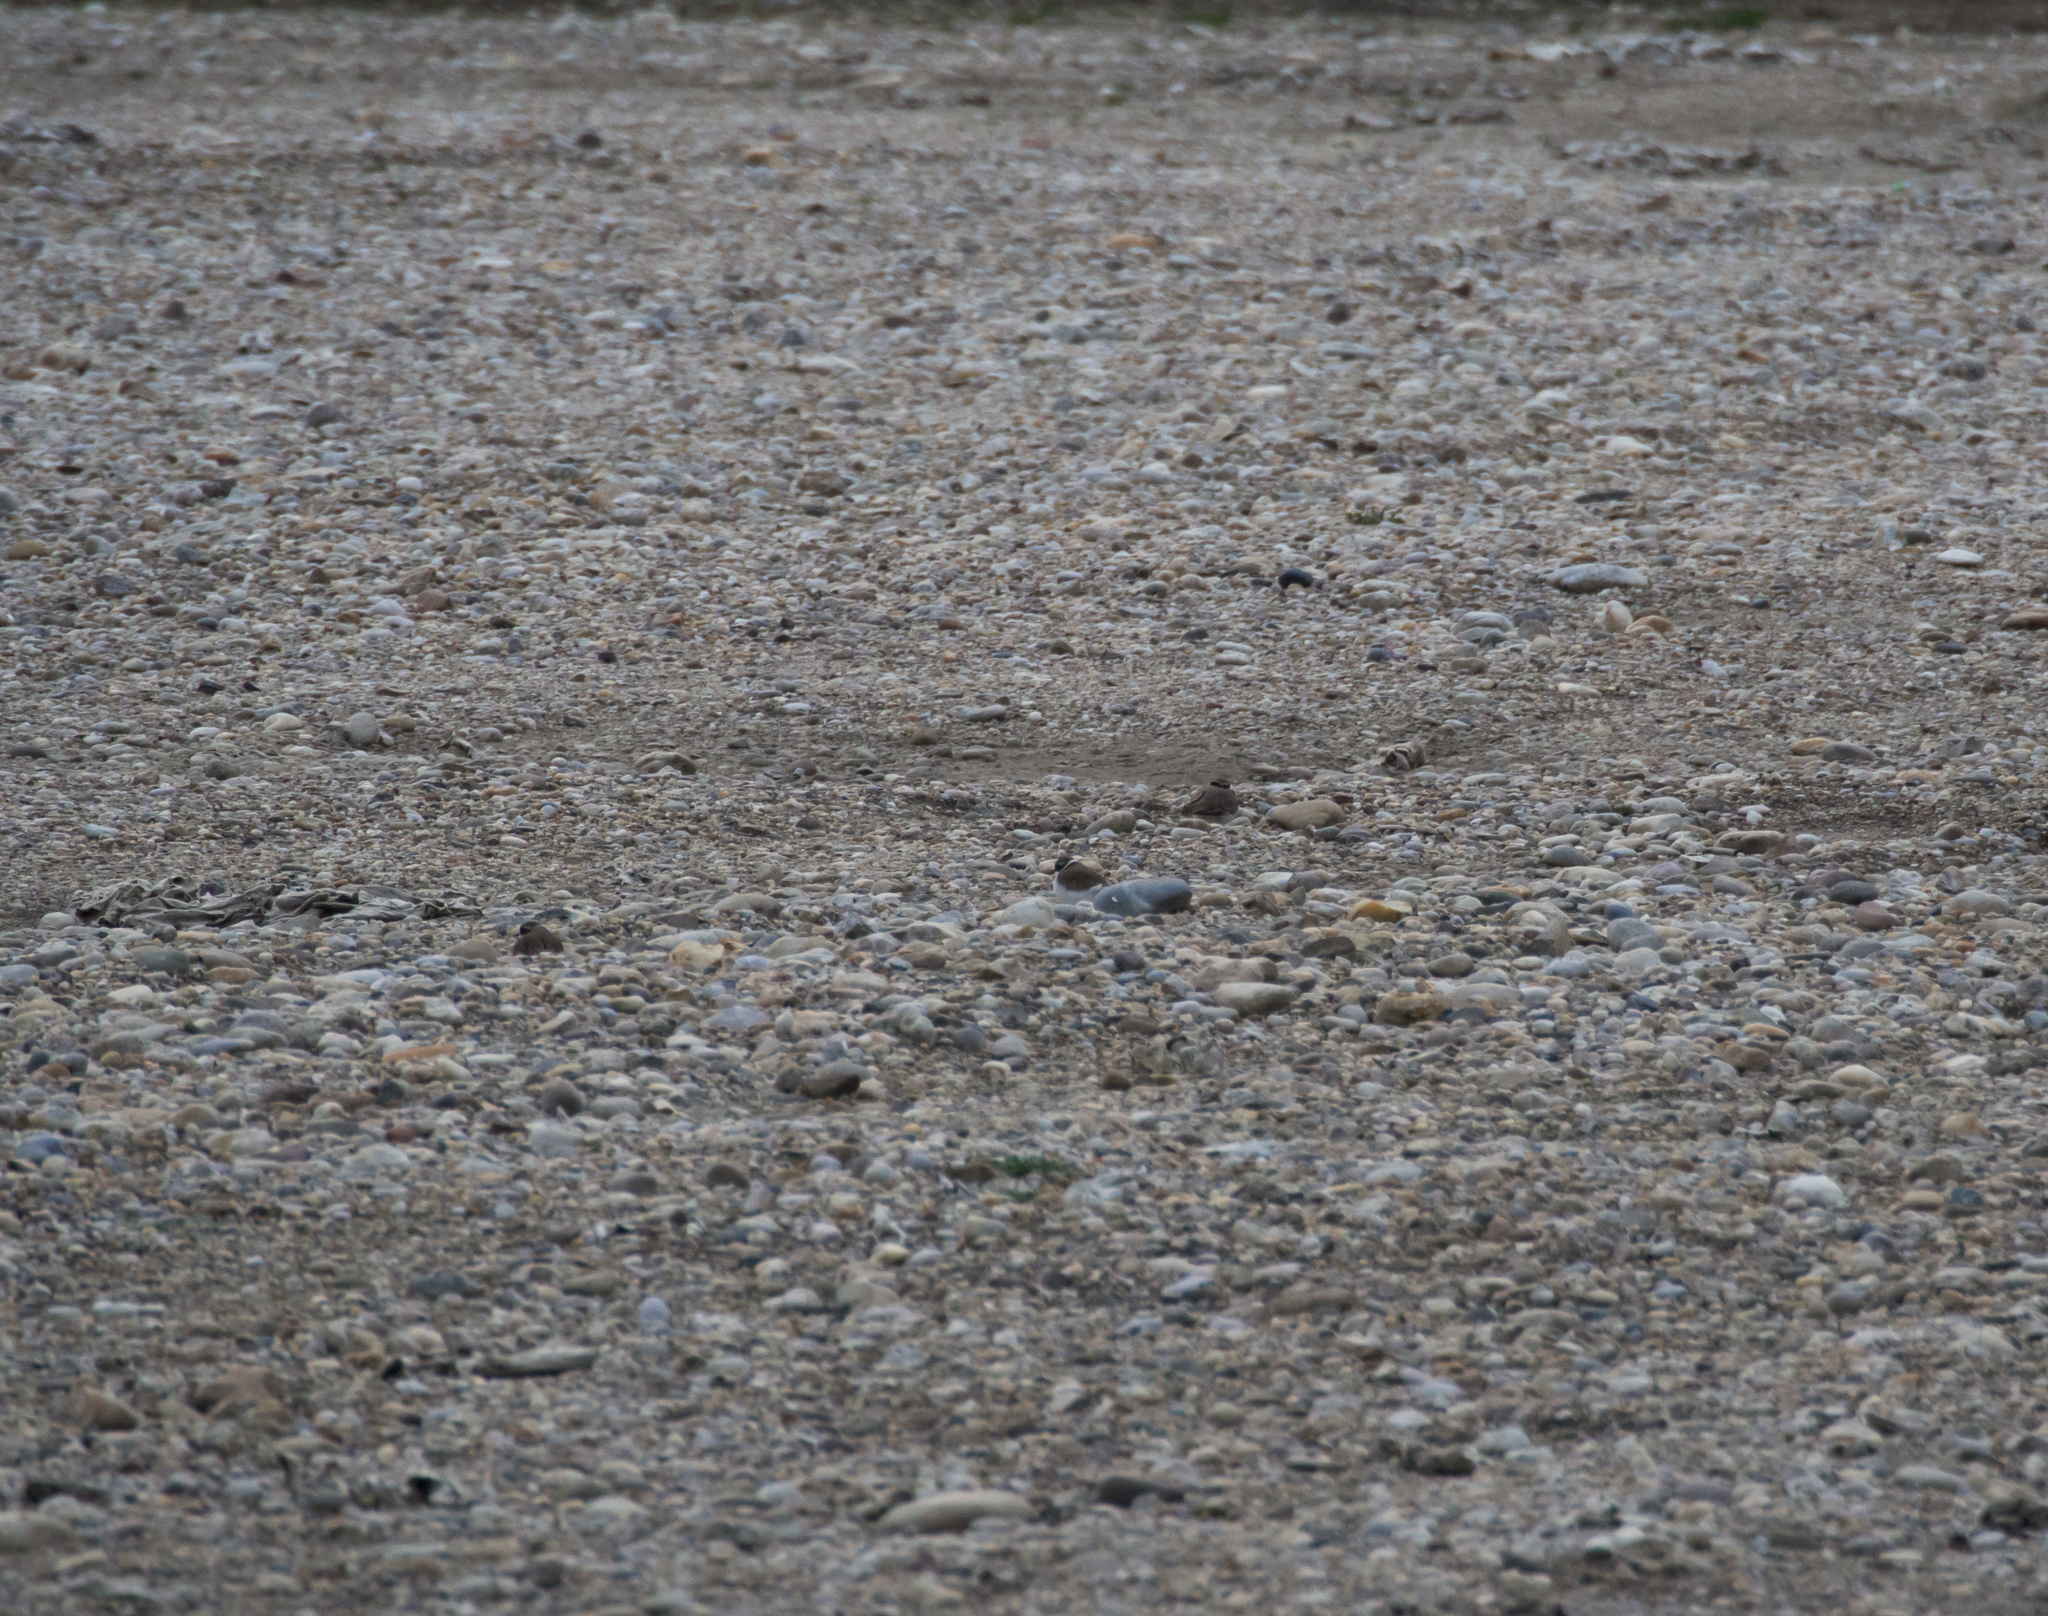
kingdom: Animalia
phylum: Chordata
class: Aves
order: Charadriiformes
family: Charadriidae
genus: Charadrius
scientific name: Charadrius dubius
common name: Little ringed plover
